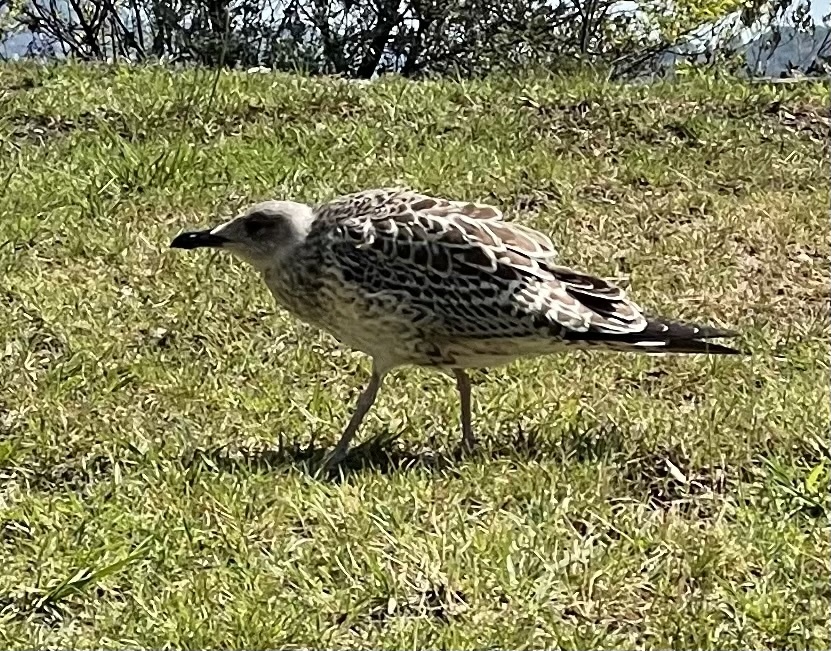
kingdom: Animalia
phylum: Chordata
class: Aves
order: Charadriiformes
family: Laridae
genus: Larus
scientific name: Larus michahellis
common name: Yellow-legged gull
